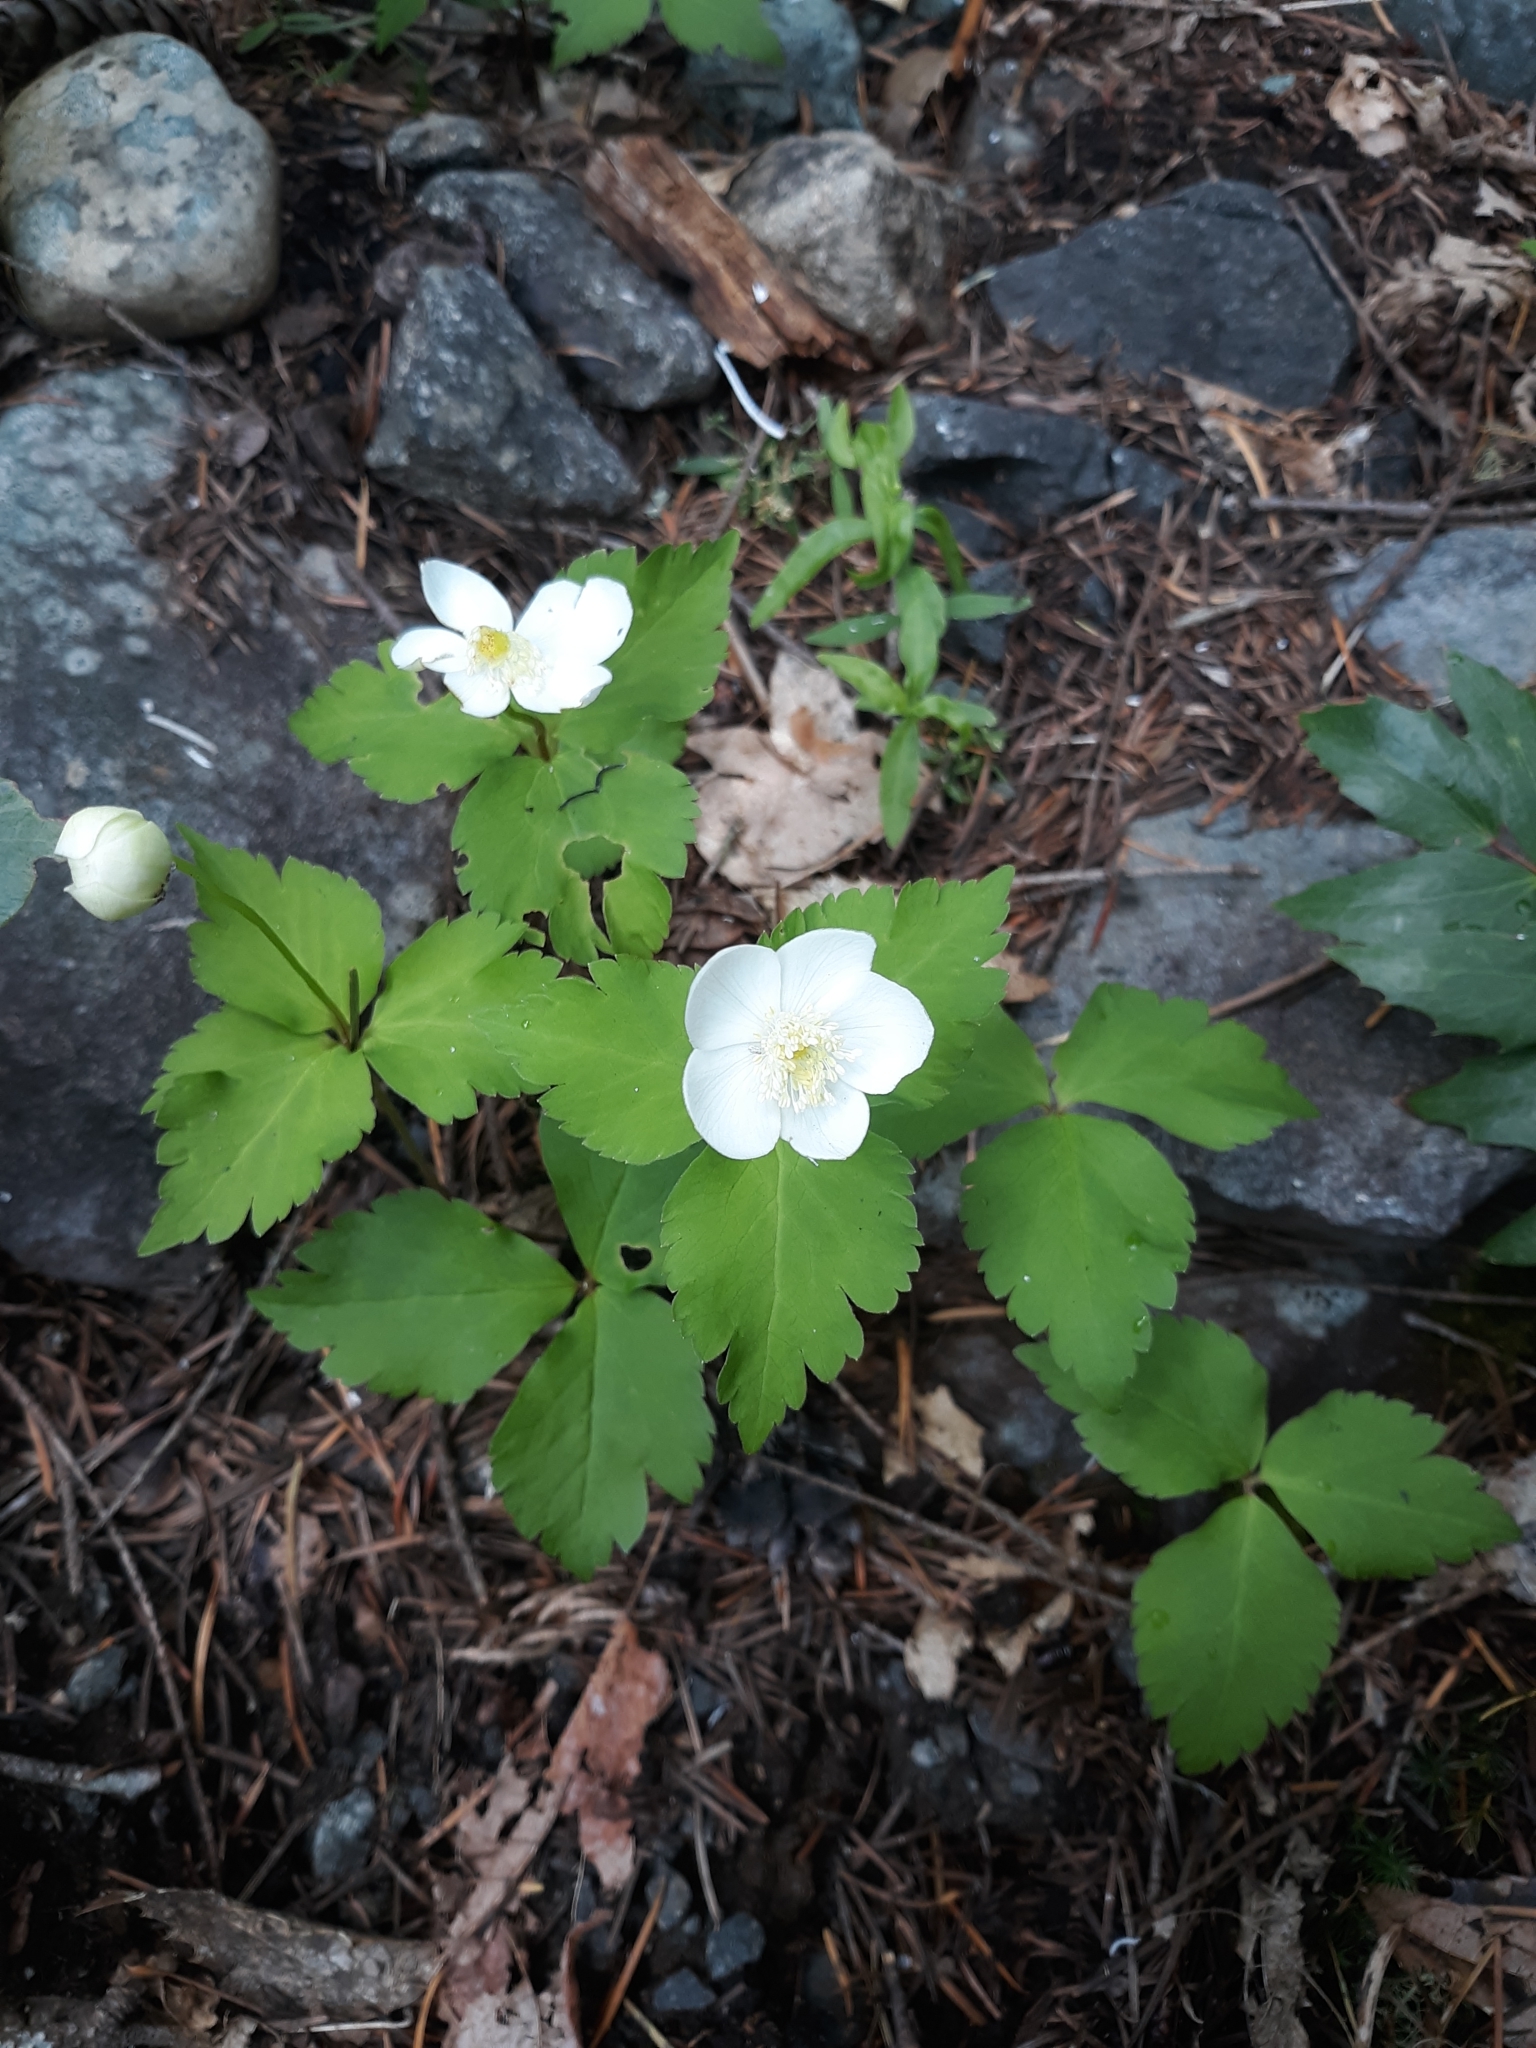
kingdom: Plantae
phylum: Tracheophyta
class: Magnoliopsida
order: Ranunculales
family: Ranunculaceae
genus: Anemonastrum
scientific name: Anemonastrum deltoideum
